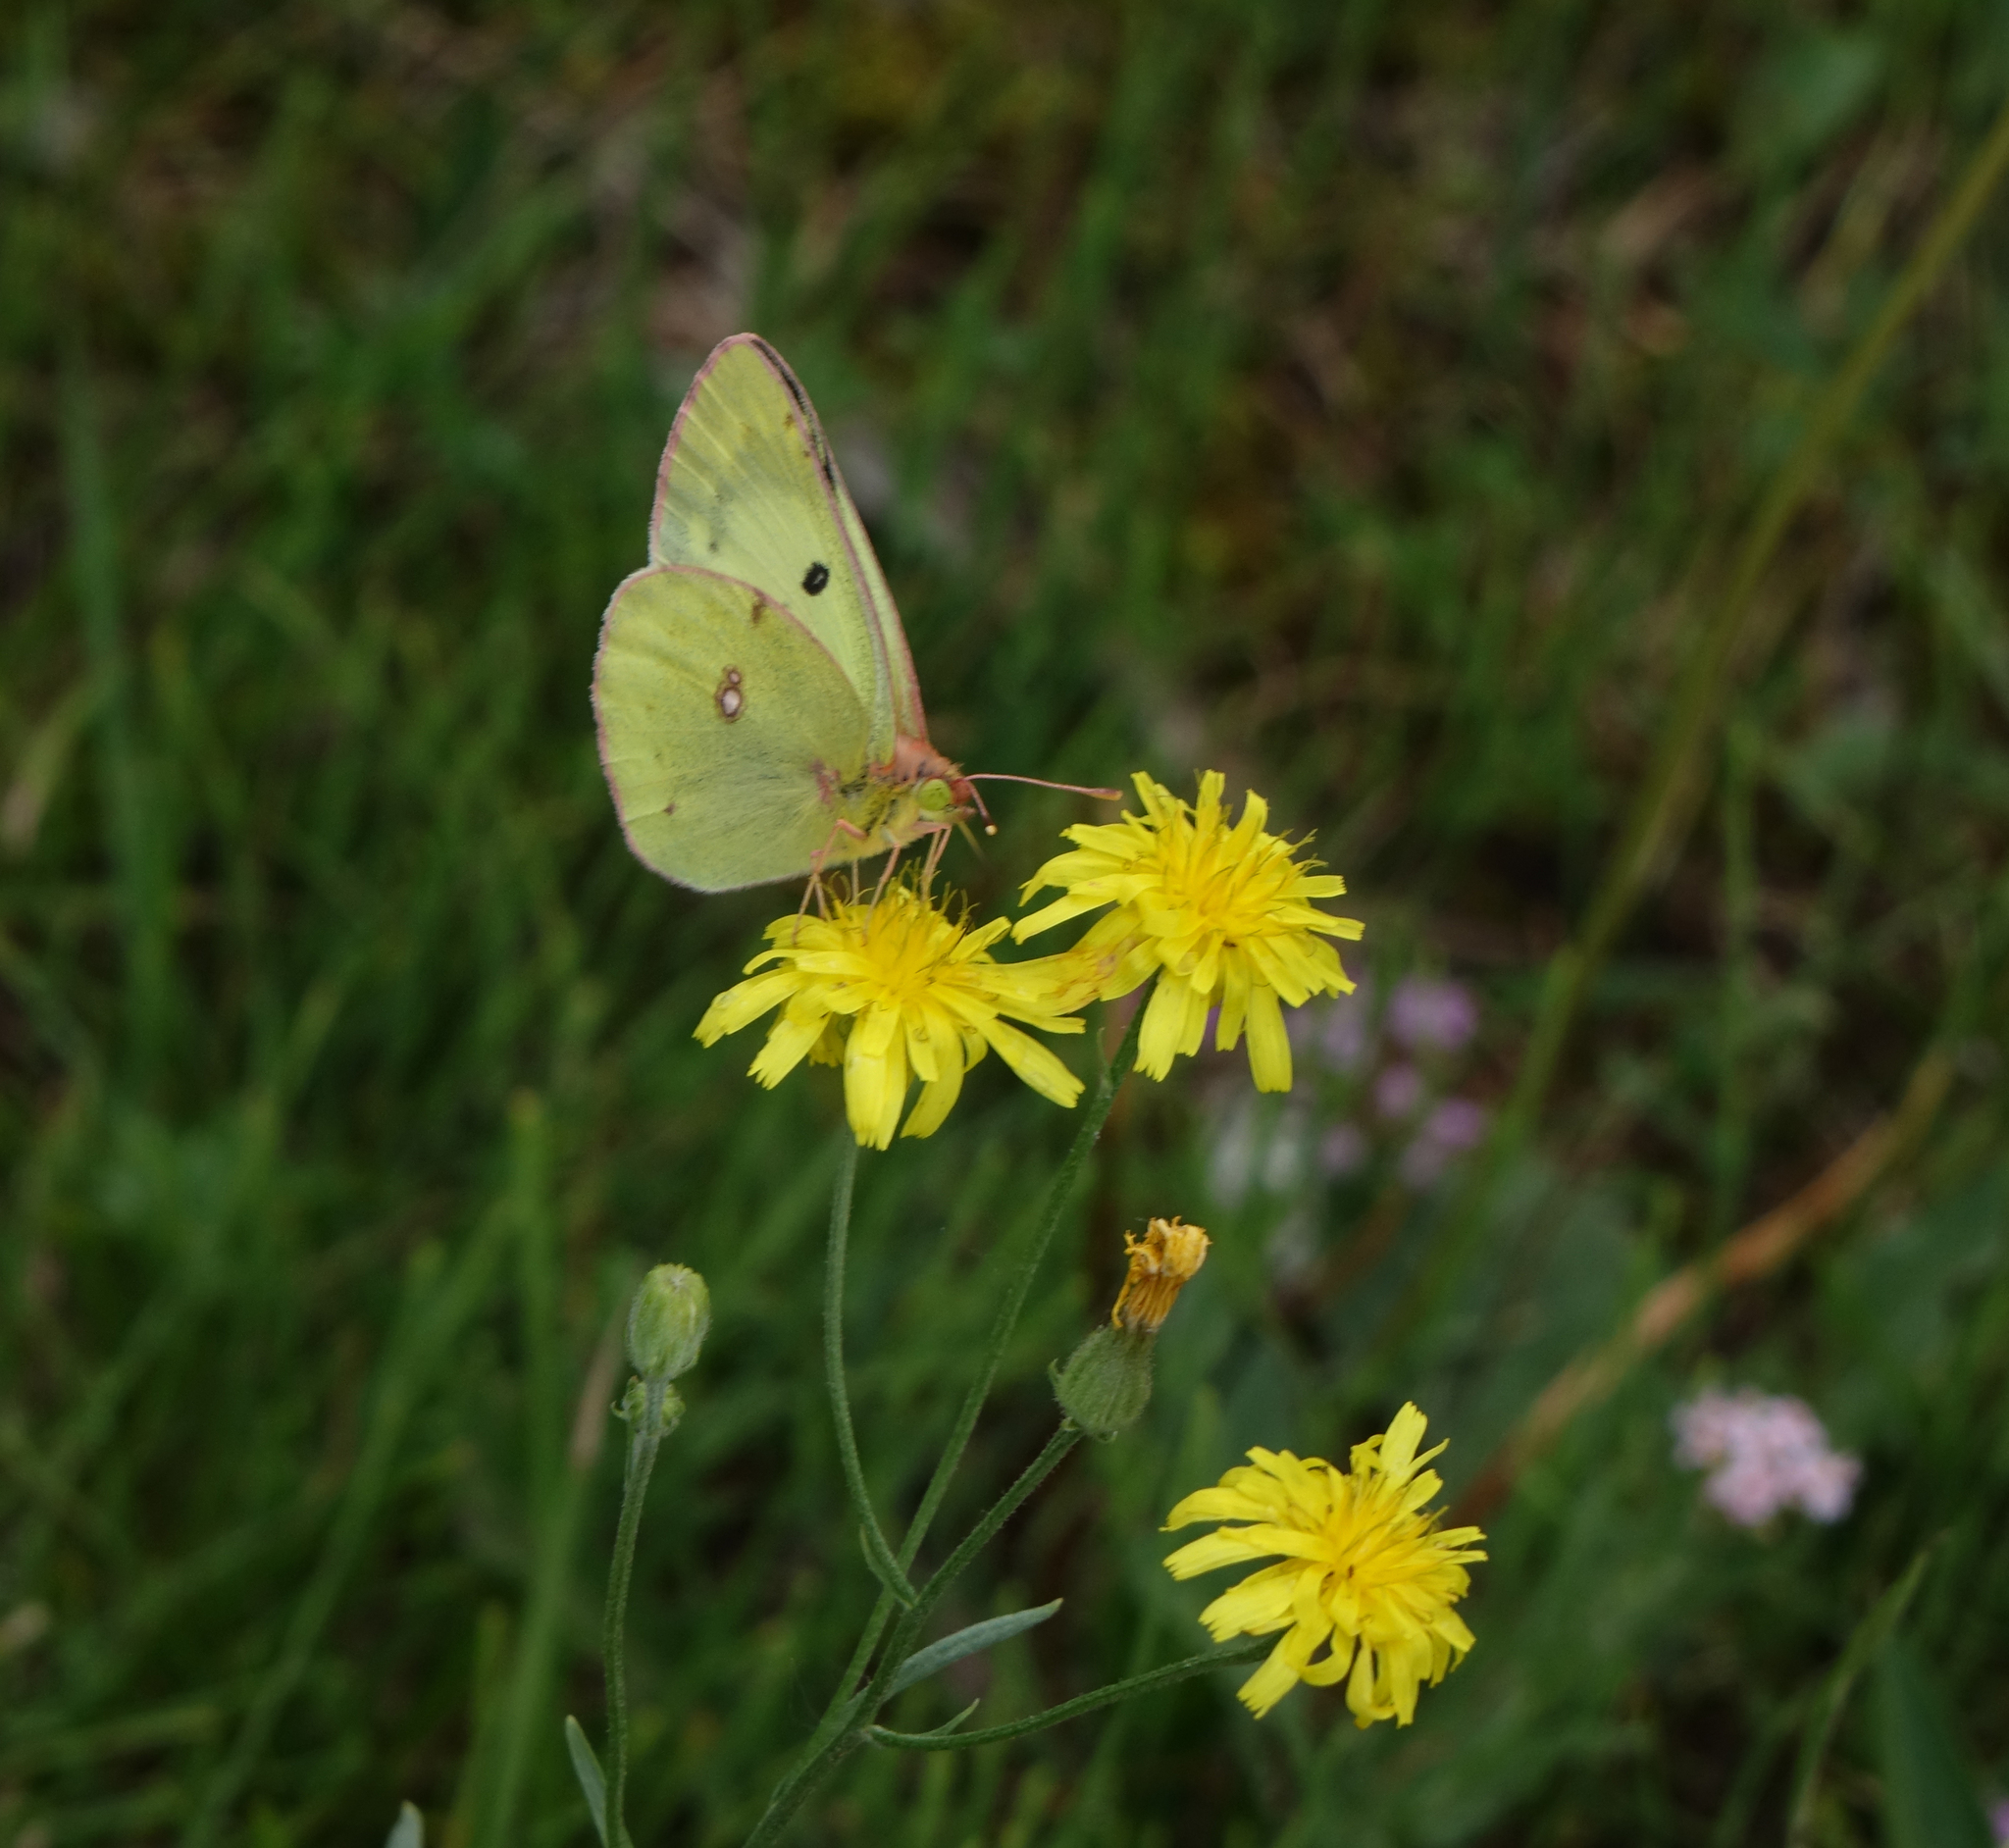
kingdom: Animalia
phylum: Arthropoda
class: Insecta
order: Lepidoptera
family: Pieridae
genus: Colias
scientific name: Colias hyale
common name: Pale clouded yellow
